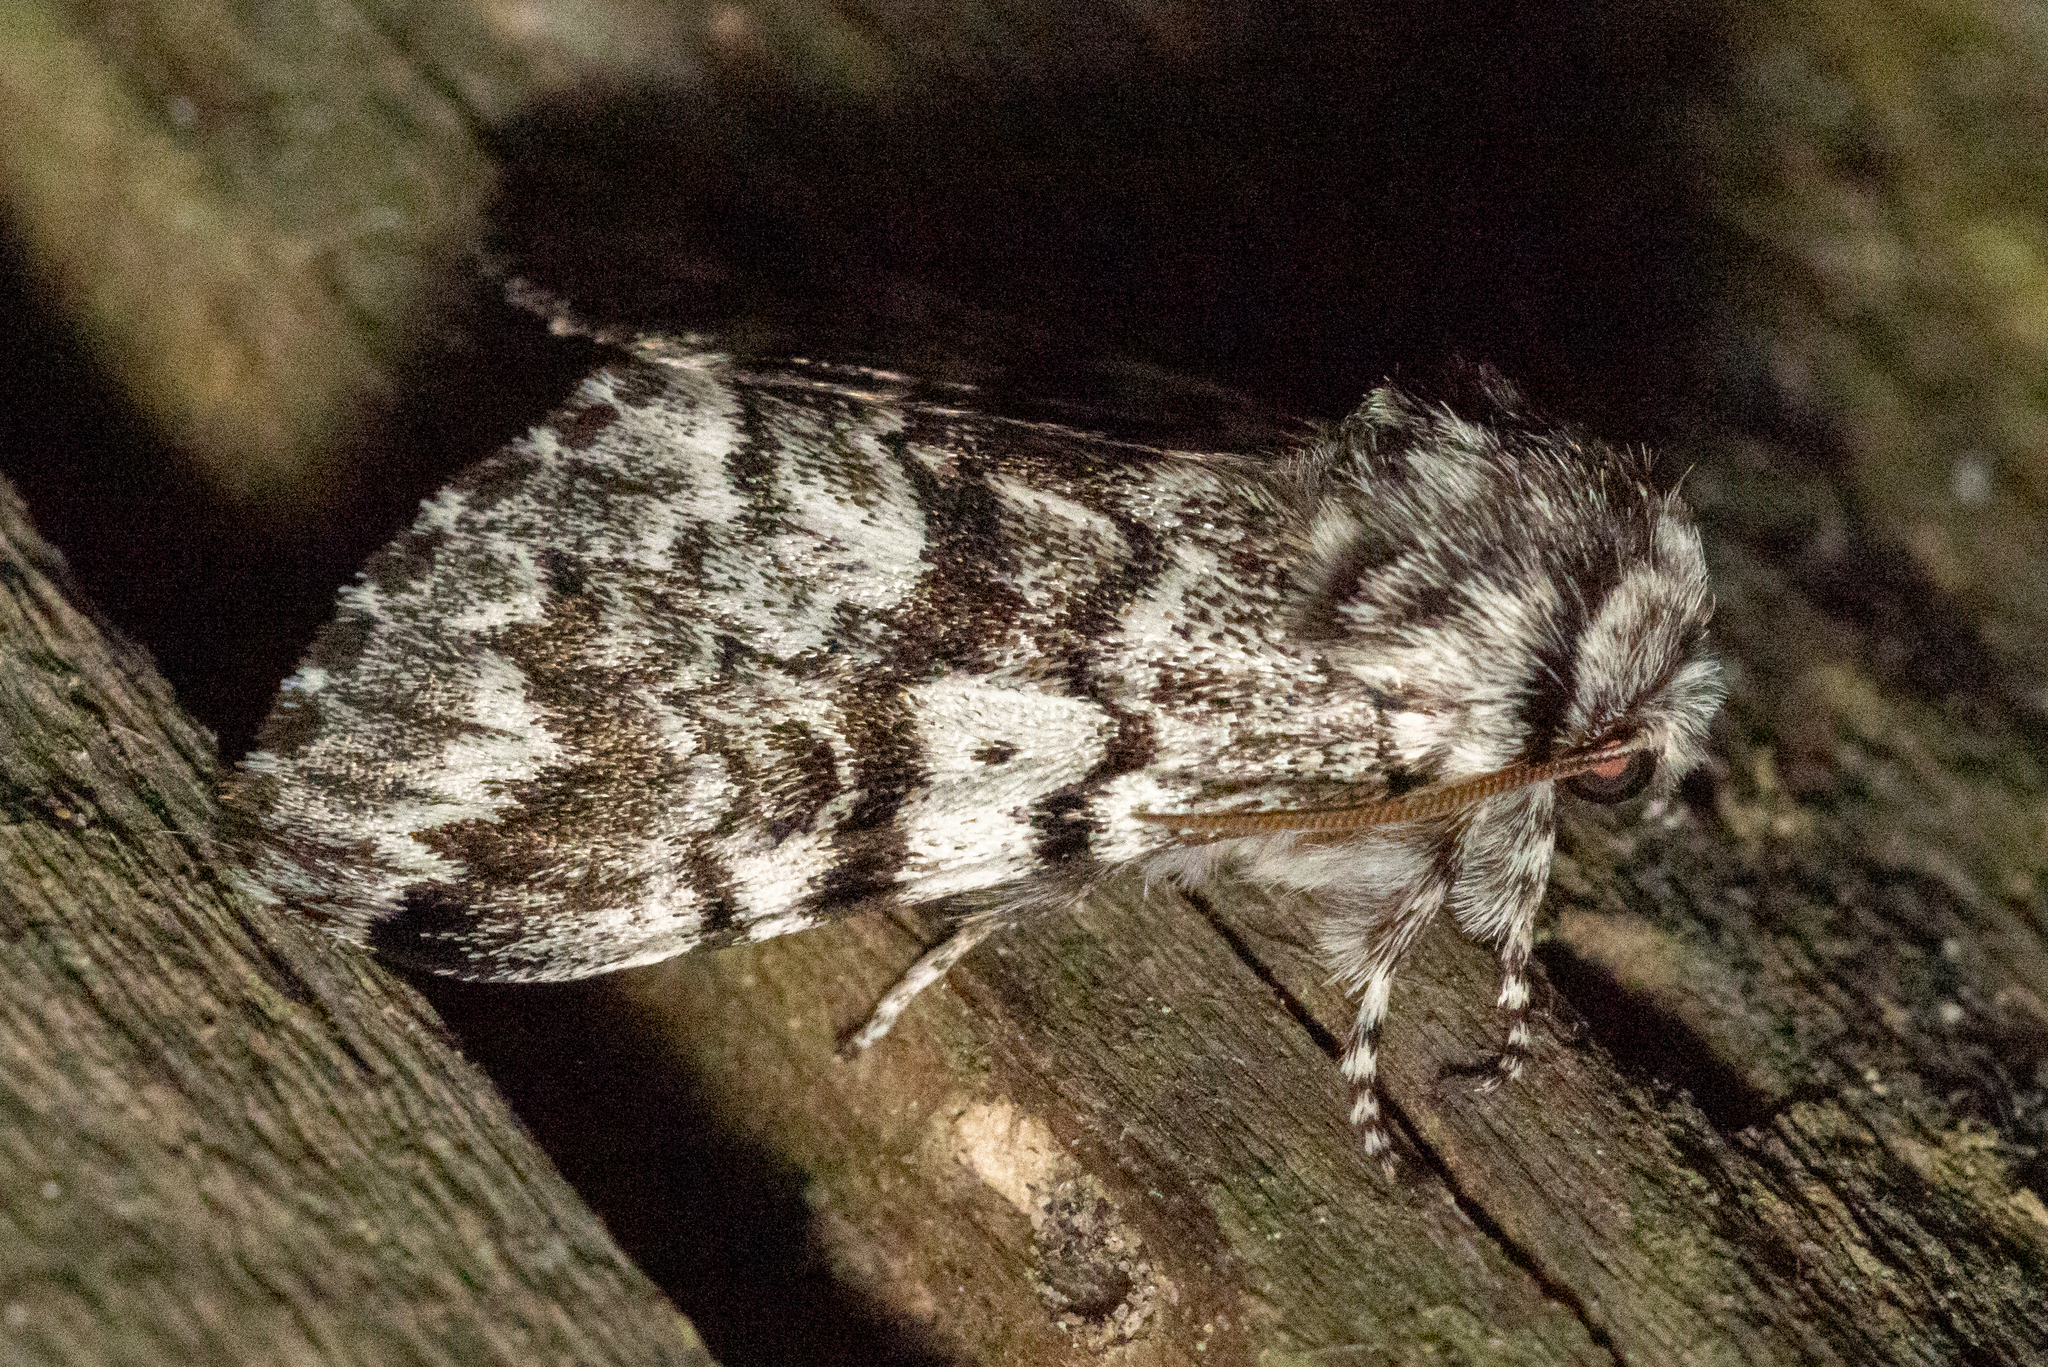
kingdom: Animalia
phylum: Arthropoda
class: Insecta
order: Lepidoptera
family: Noctuidae
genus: Panthea
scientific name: Panthea acronyctoides
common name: Black zigzag moth
